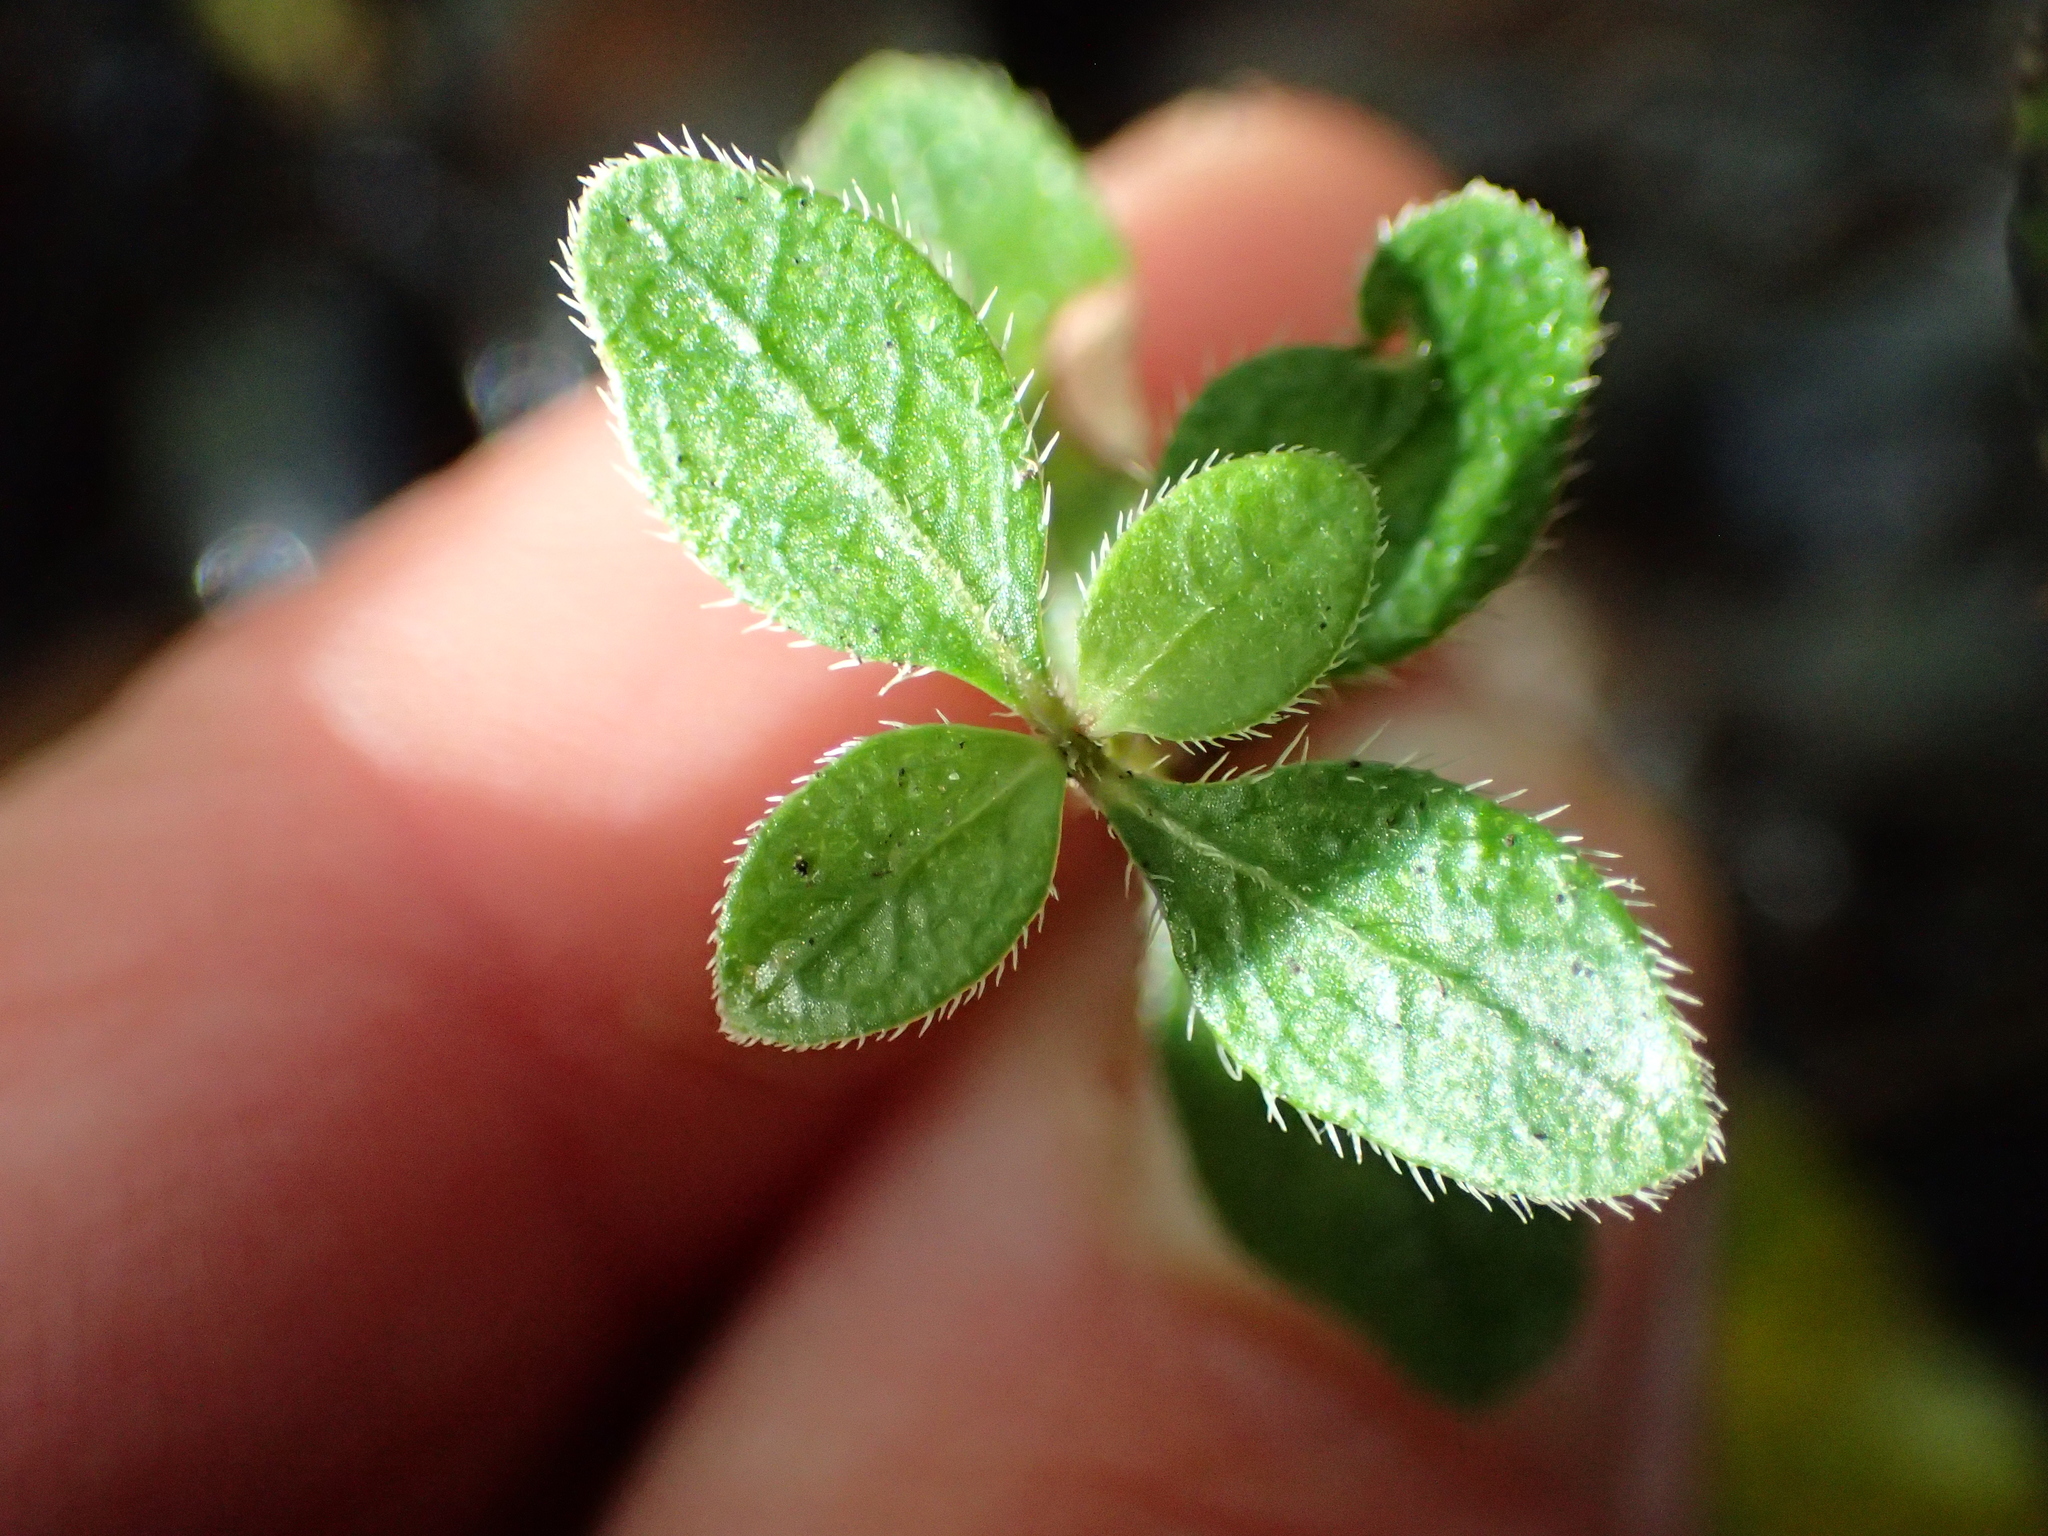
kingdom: Plantae
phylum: Tracheophyta
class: Magnoliopsida
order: Gentianales
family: Rubiaceae
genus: Coprosma
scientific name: Coprosma ciliata
